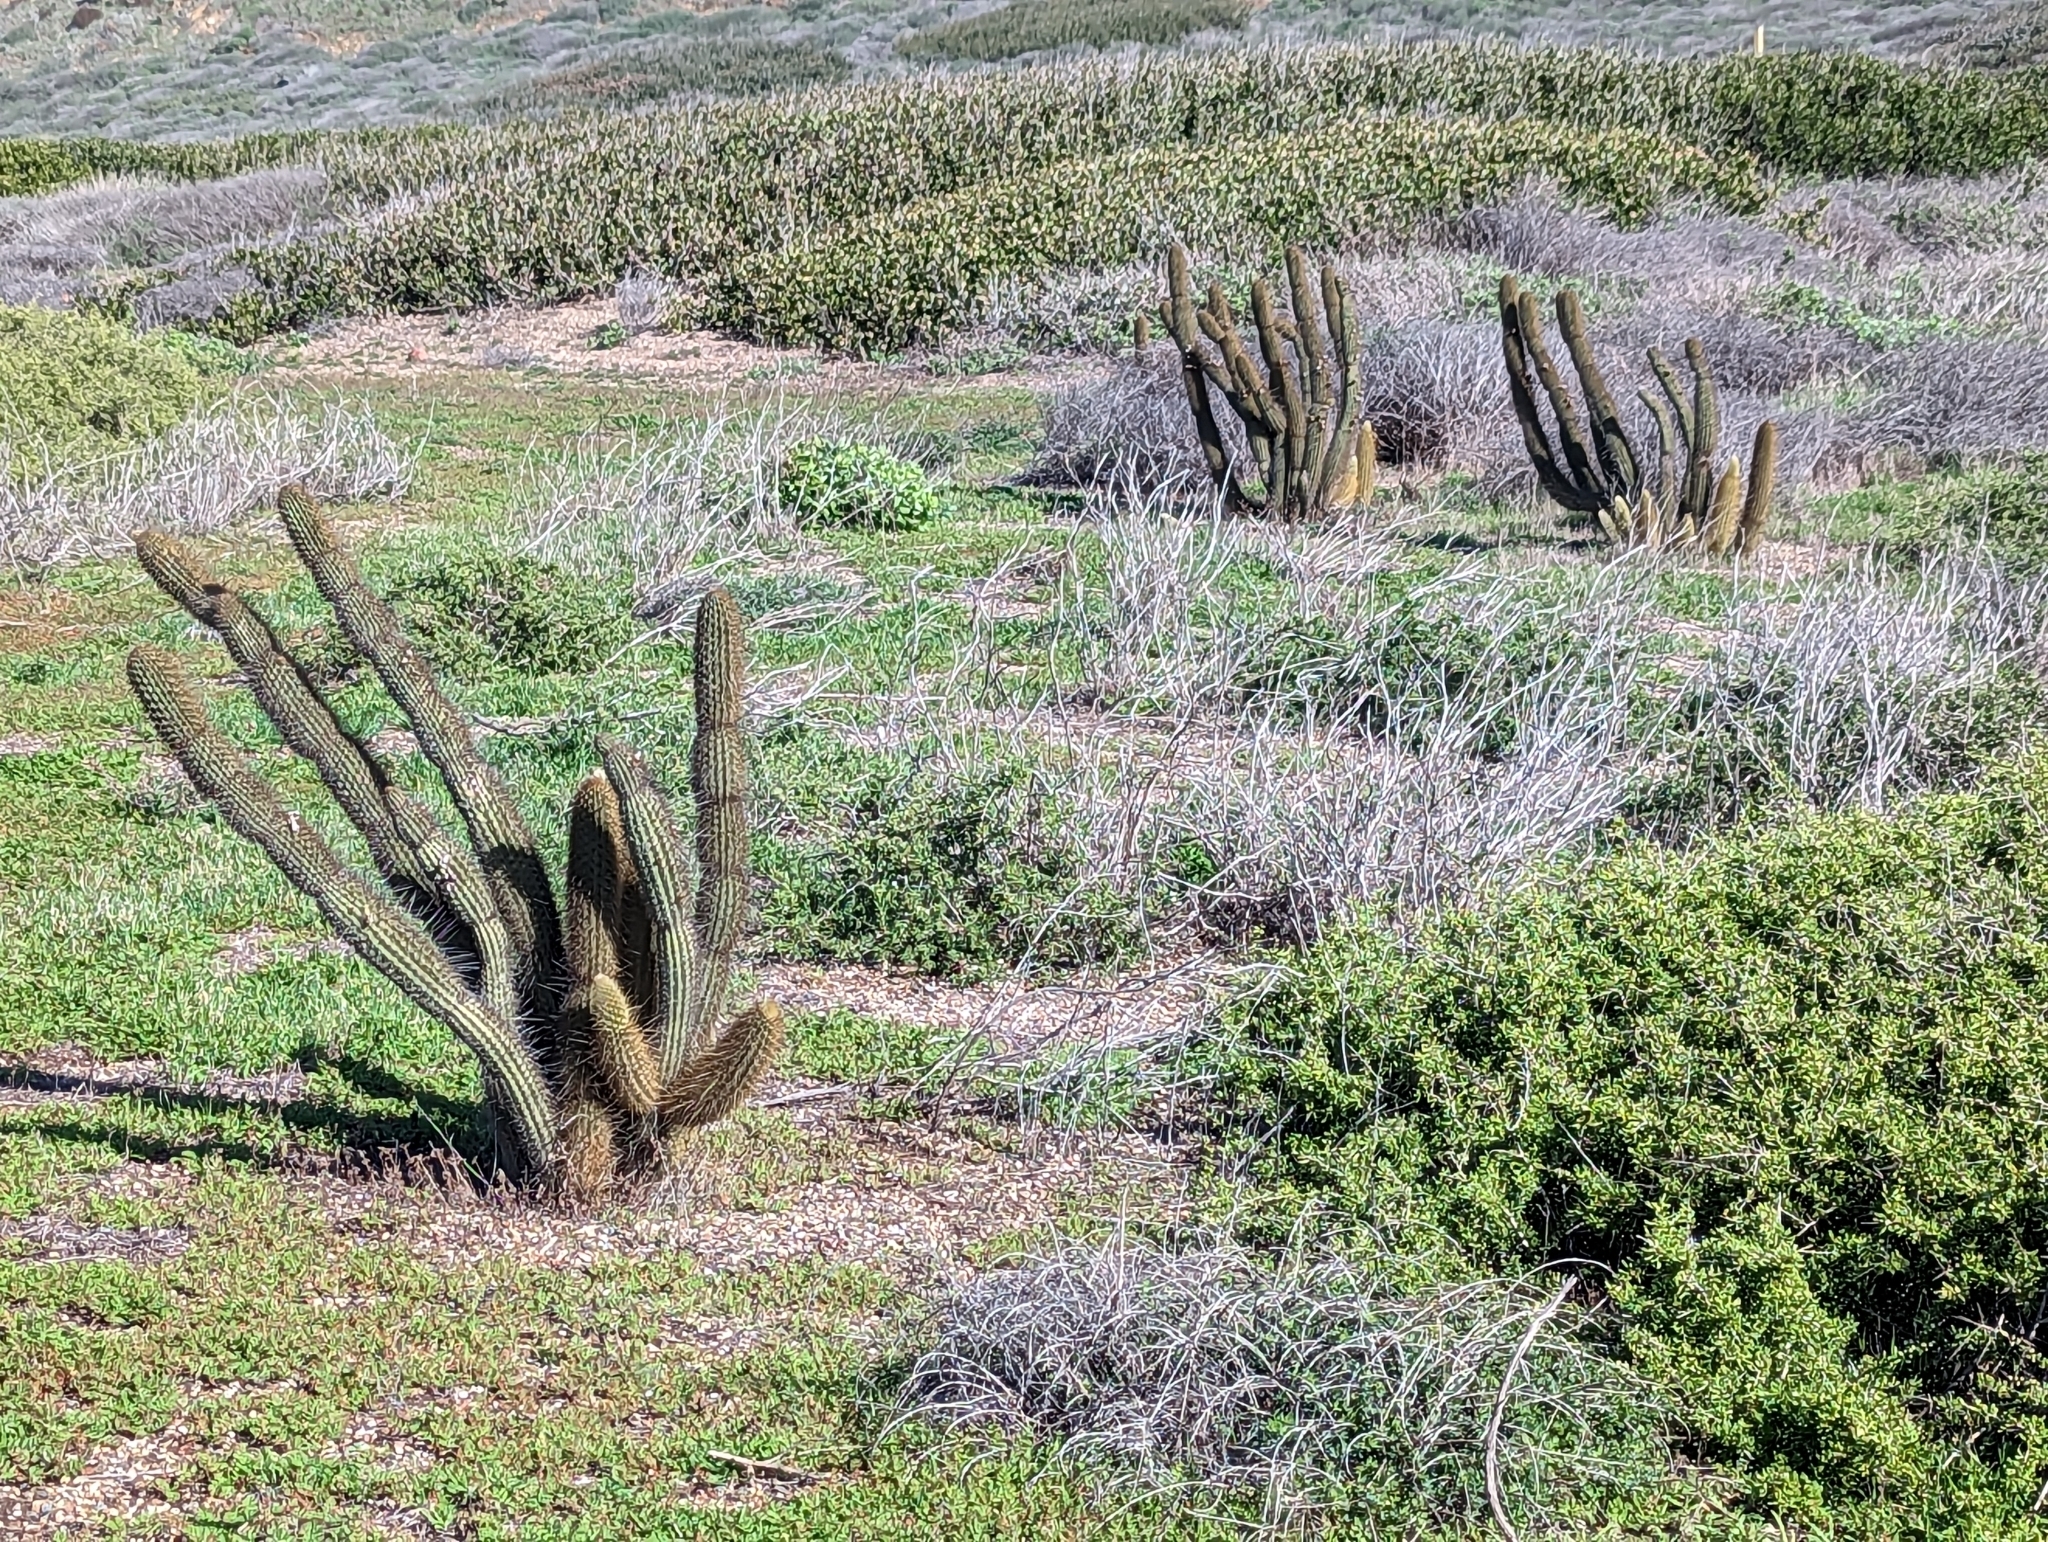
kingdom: Plantae
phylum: Tracheophyta
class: Magnoliopsida
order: Caryophyllales
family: Cactaceae
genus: Bergerocactus
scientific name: Bergerocactus emoryi
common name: Golden snakecactus
